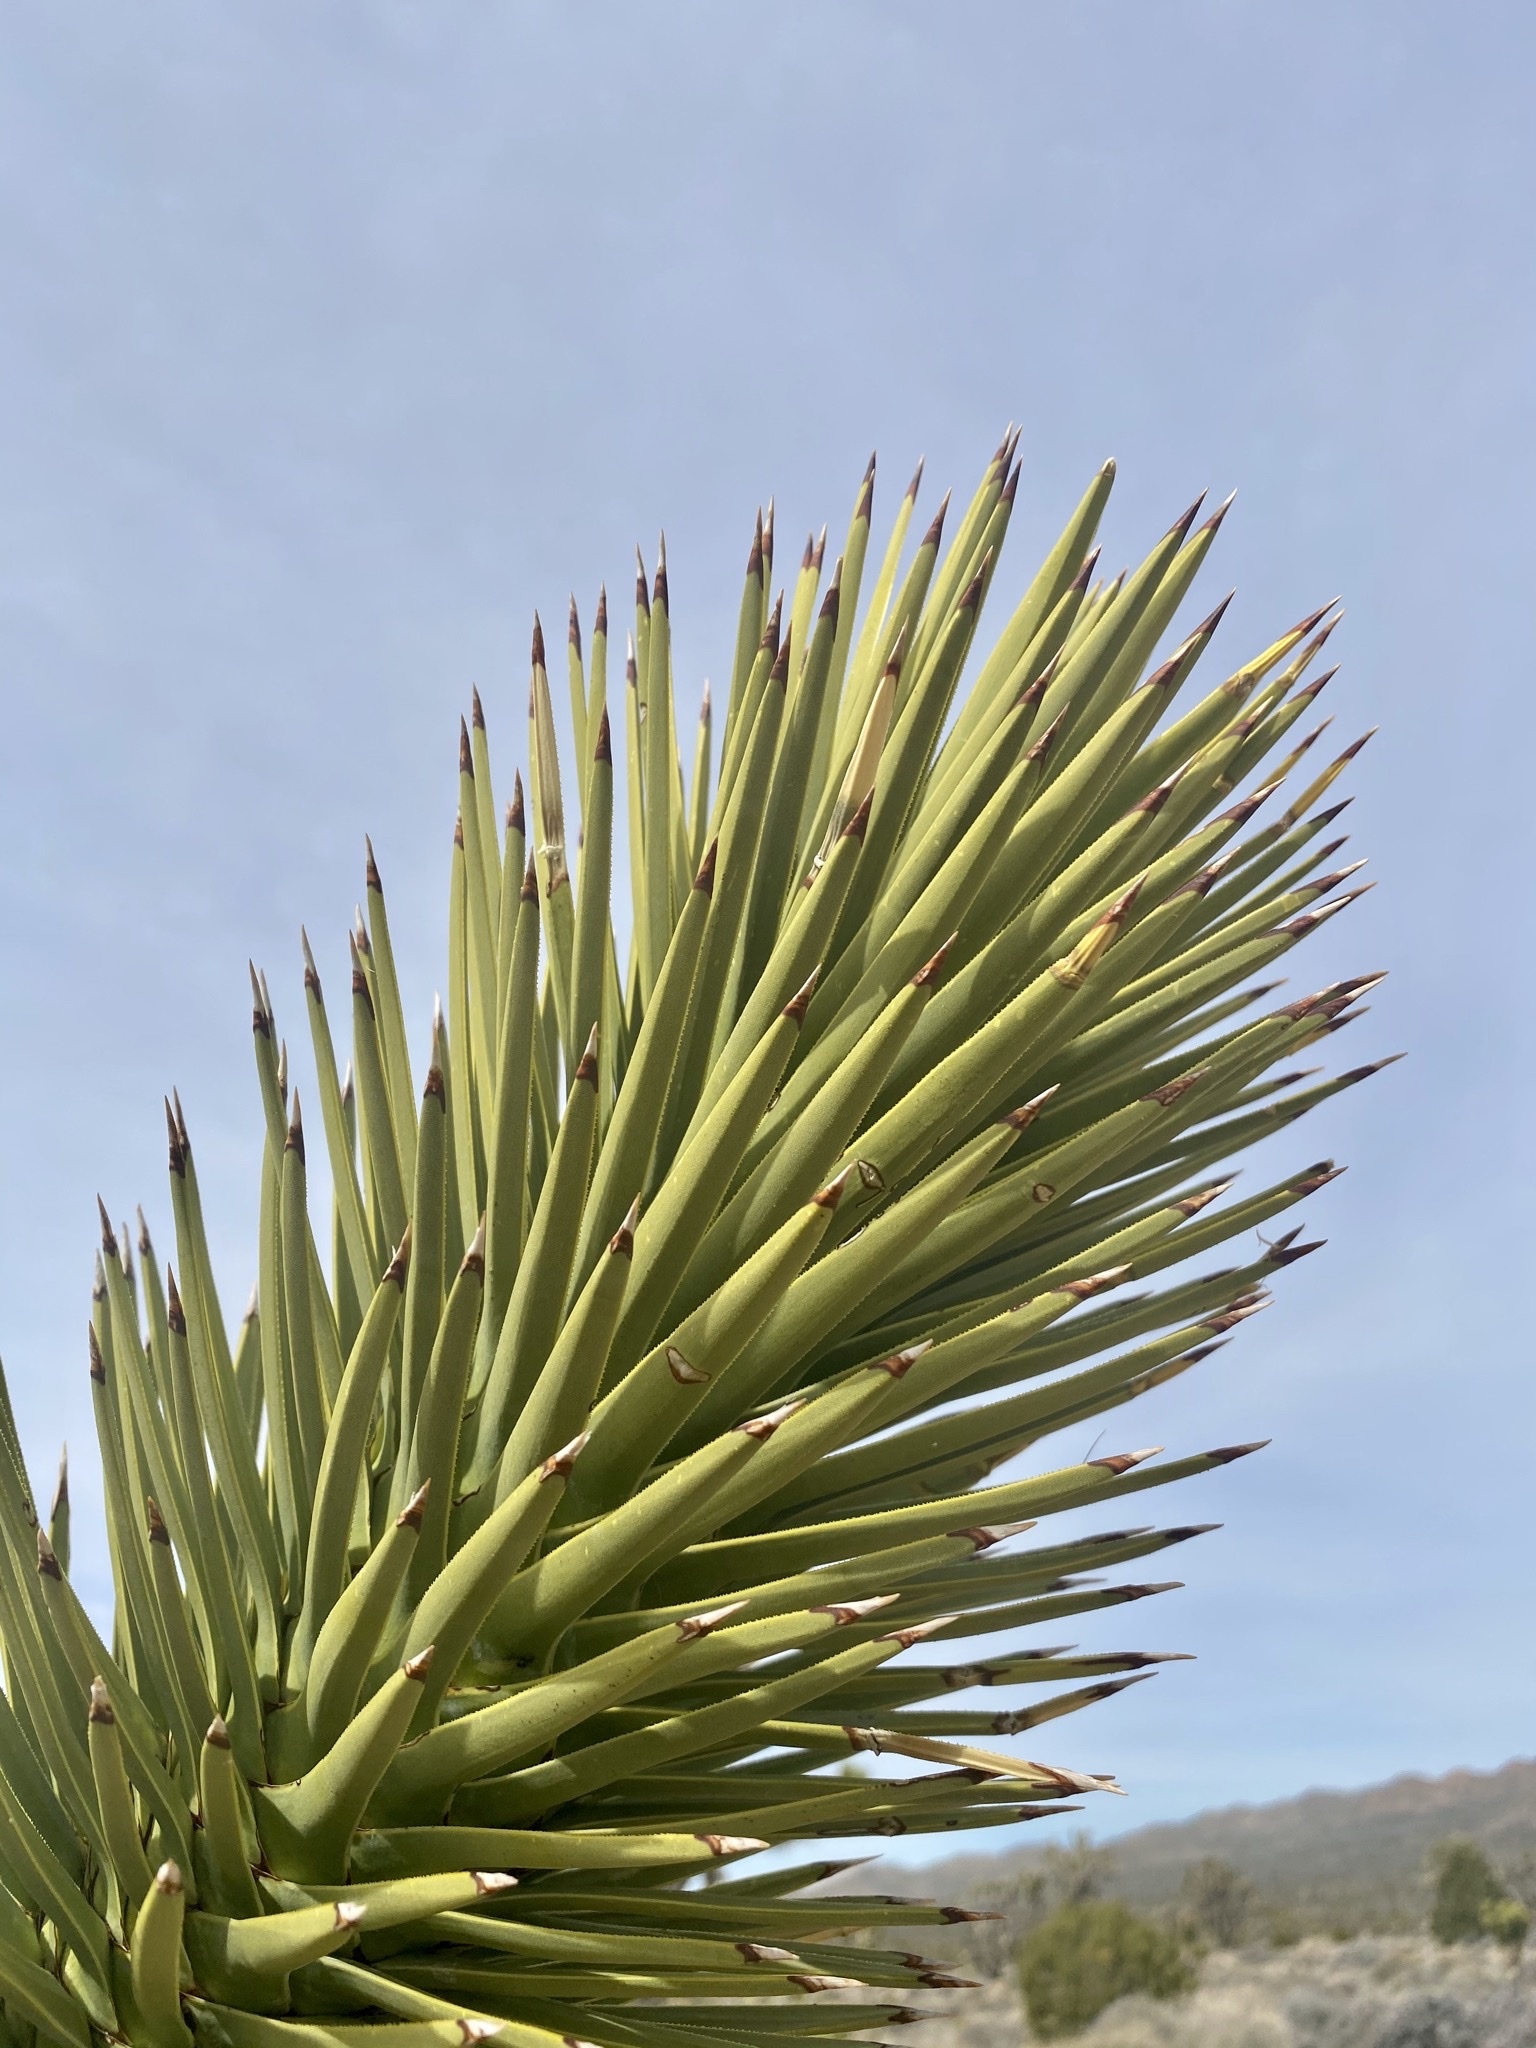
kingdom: Plantae
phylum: Tracheophyta
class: Liliopsida
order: Asparagales
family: Asparagaceae
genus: Yucca
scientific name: Yucca brevifolia
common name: Joshua tree
